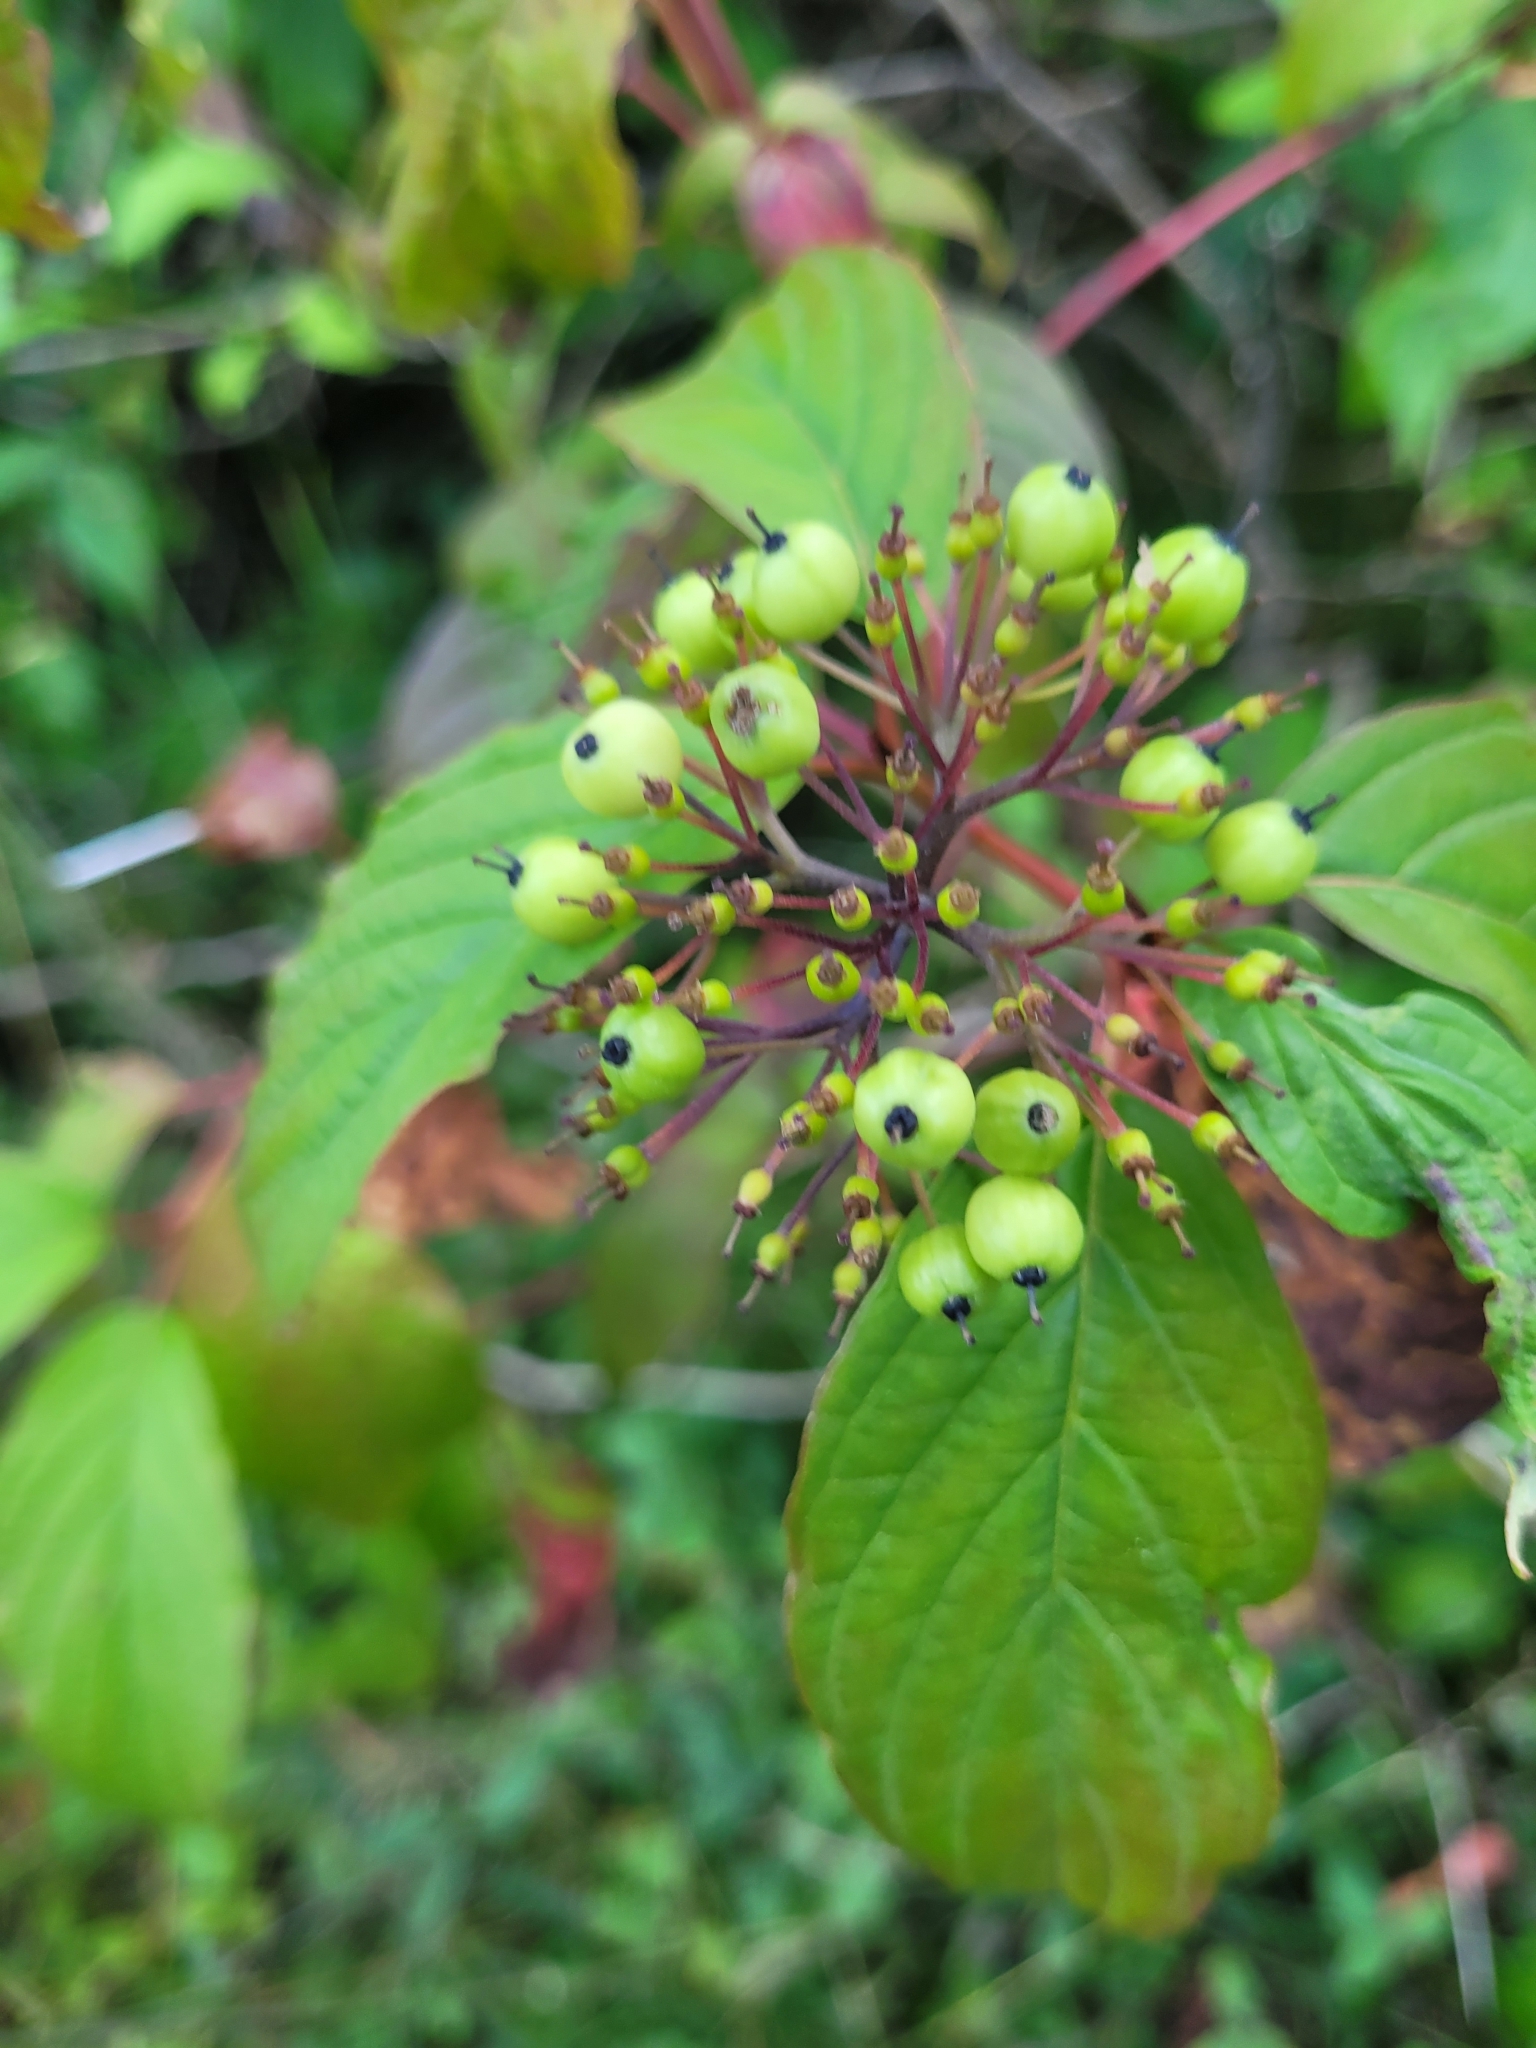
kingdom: Plantae
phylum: Tracheophyta
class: Magnoliopsida
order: Cornales
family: Cornaceae
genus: Cornus
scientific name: Cornus sericea
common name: Red-osier dogwood
